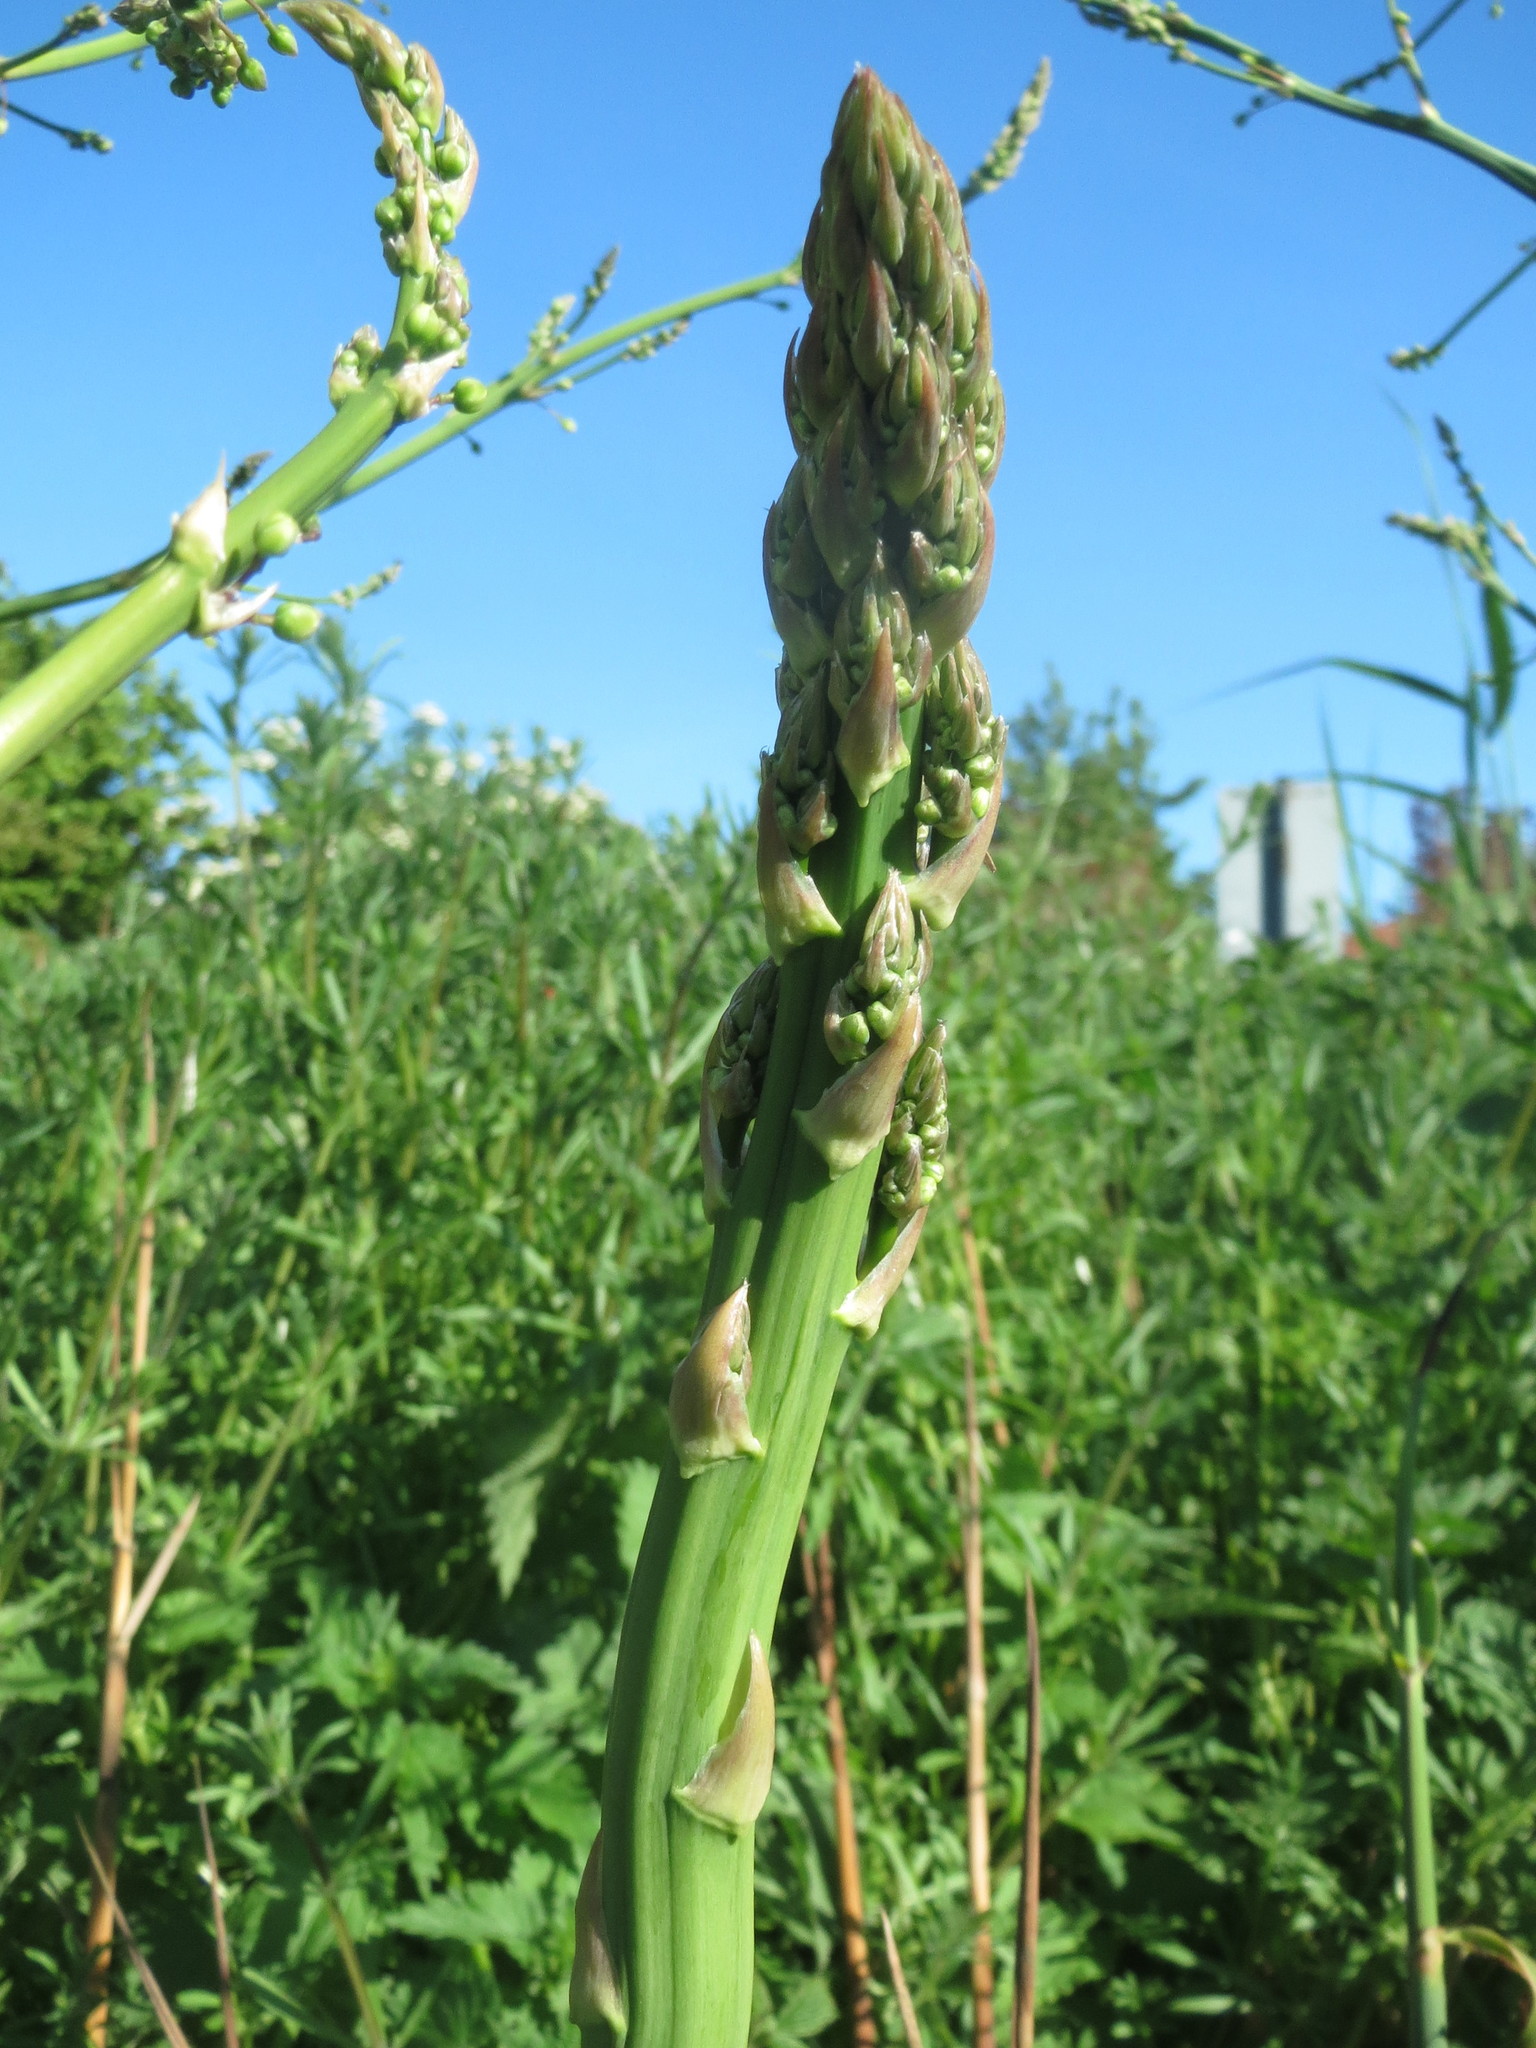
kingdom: Plantae
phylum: Tracheophyta
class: Liliopsida
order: Asparagales
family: Asparagaceae
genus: Asparagus
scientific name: Asparagus officinalis
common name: Garden asparagus
